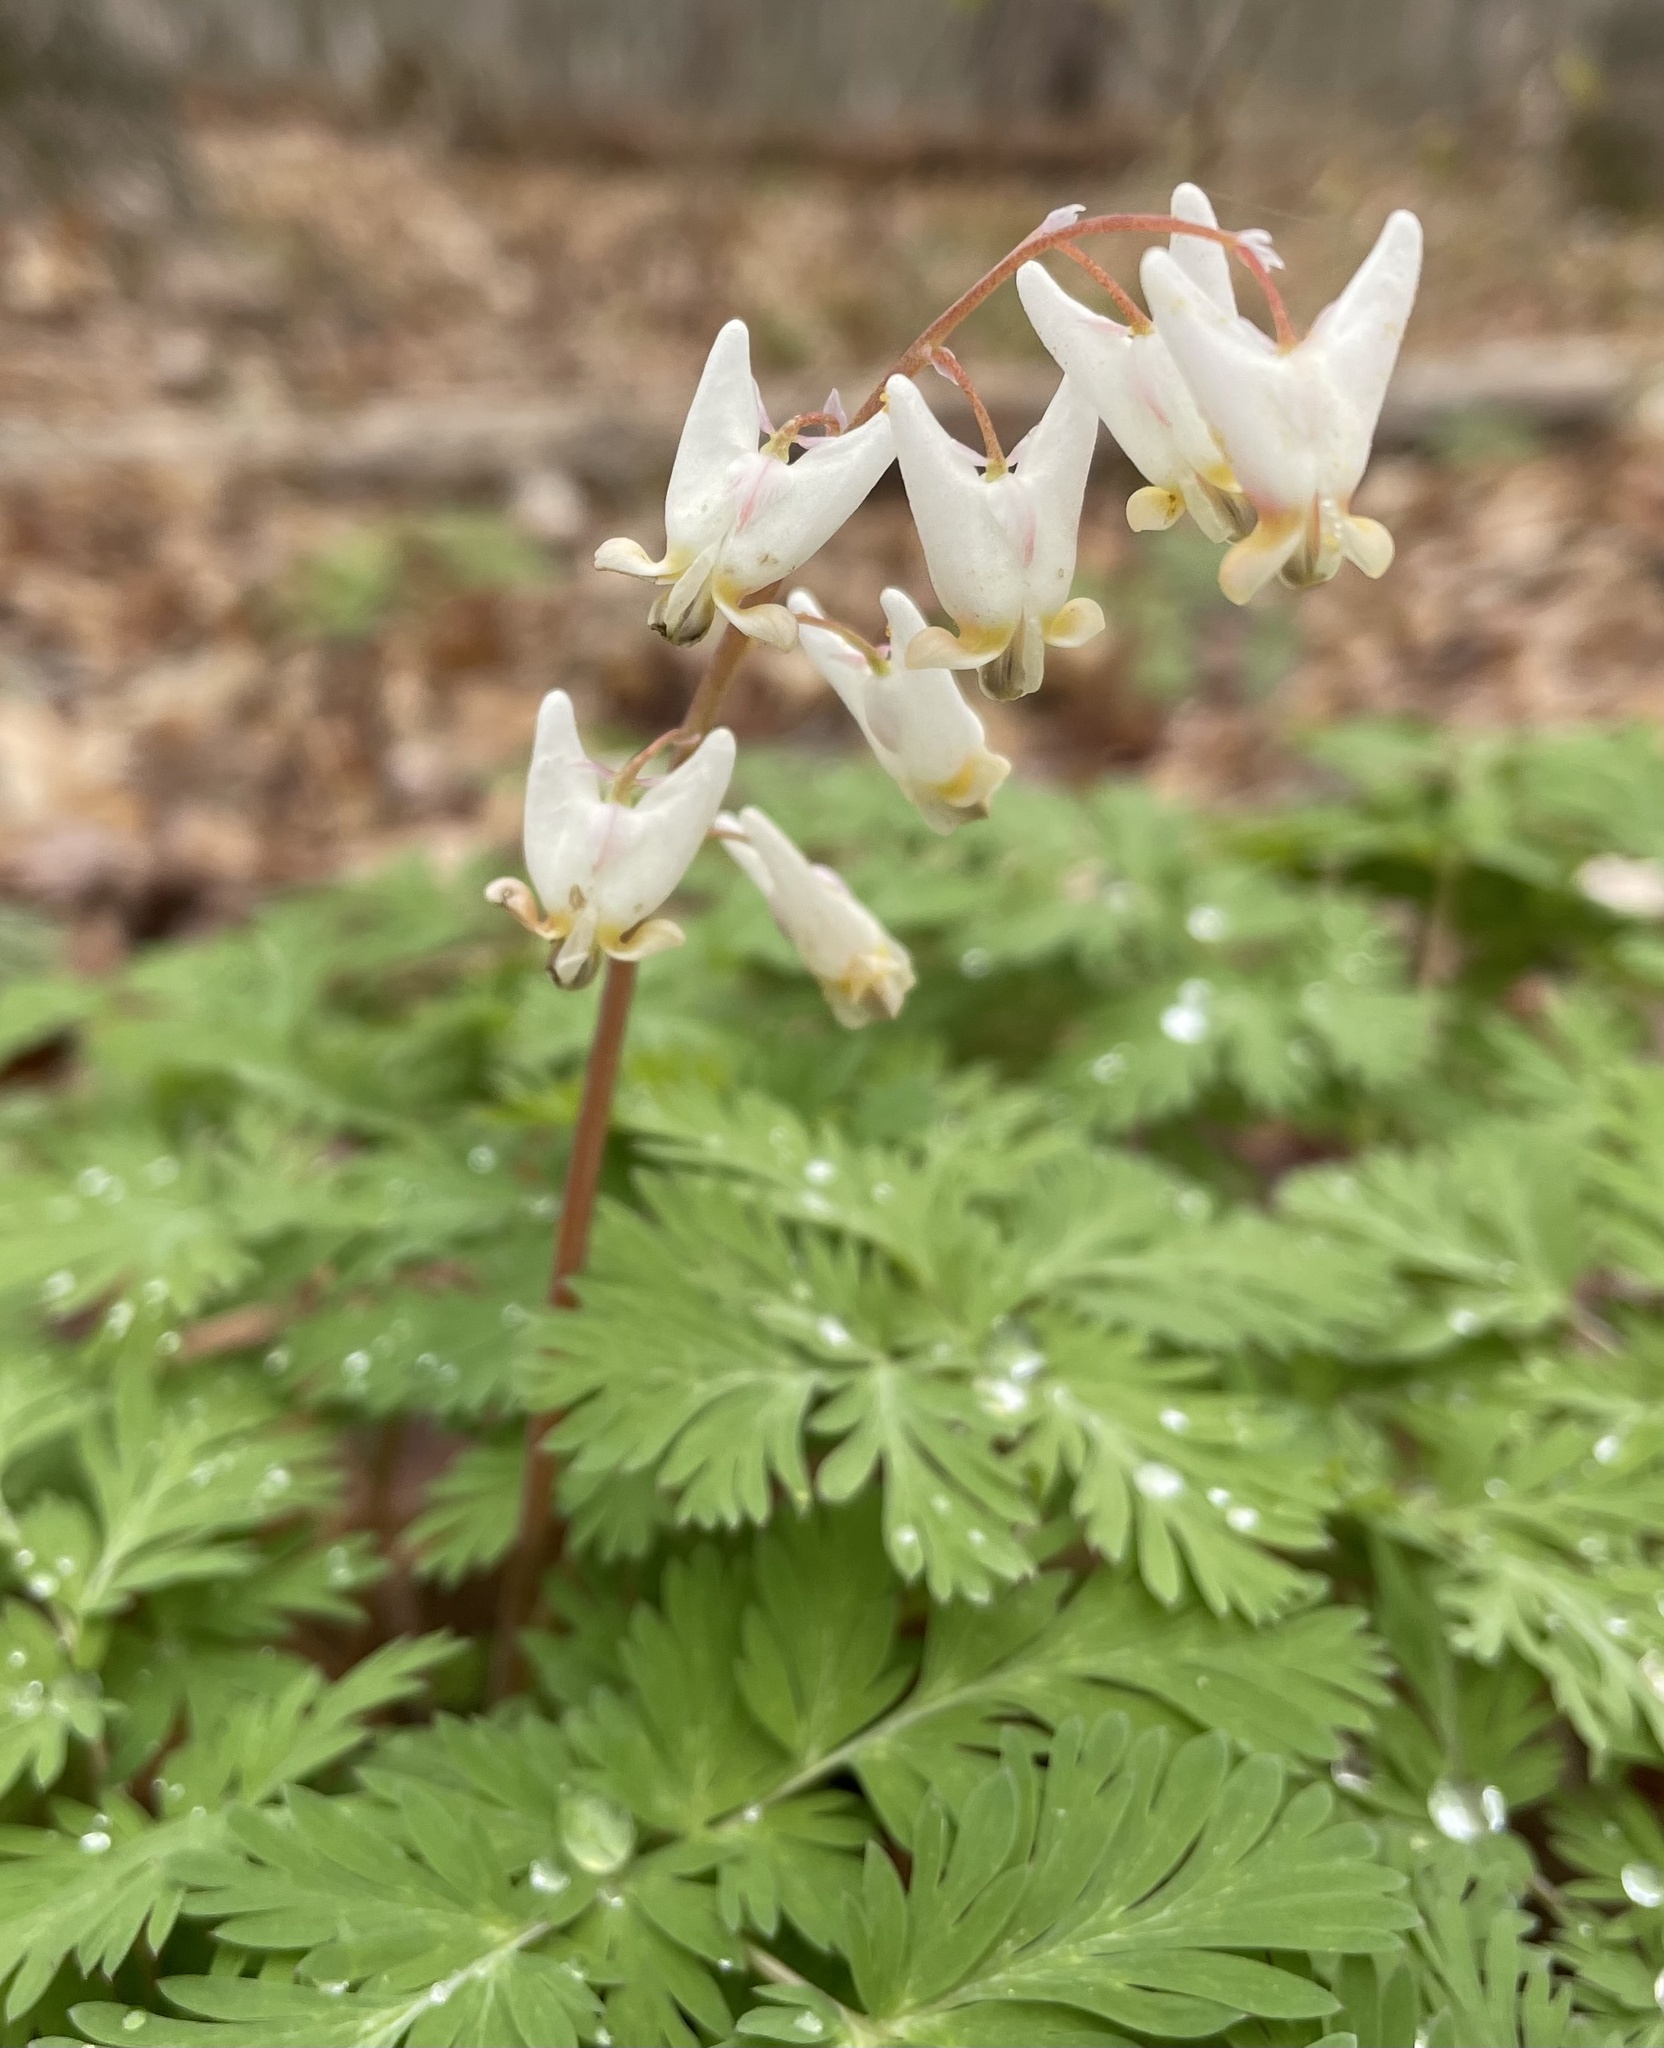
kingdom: Plantae
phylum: Tracheophyta
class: Magnoliopsida
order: Ranunculales
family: Papaveraceae
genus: Dicentra
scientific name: Dicentra cucullaria
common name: Dutchman's breeches
